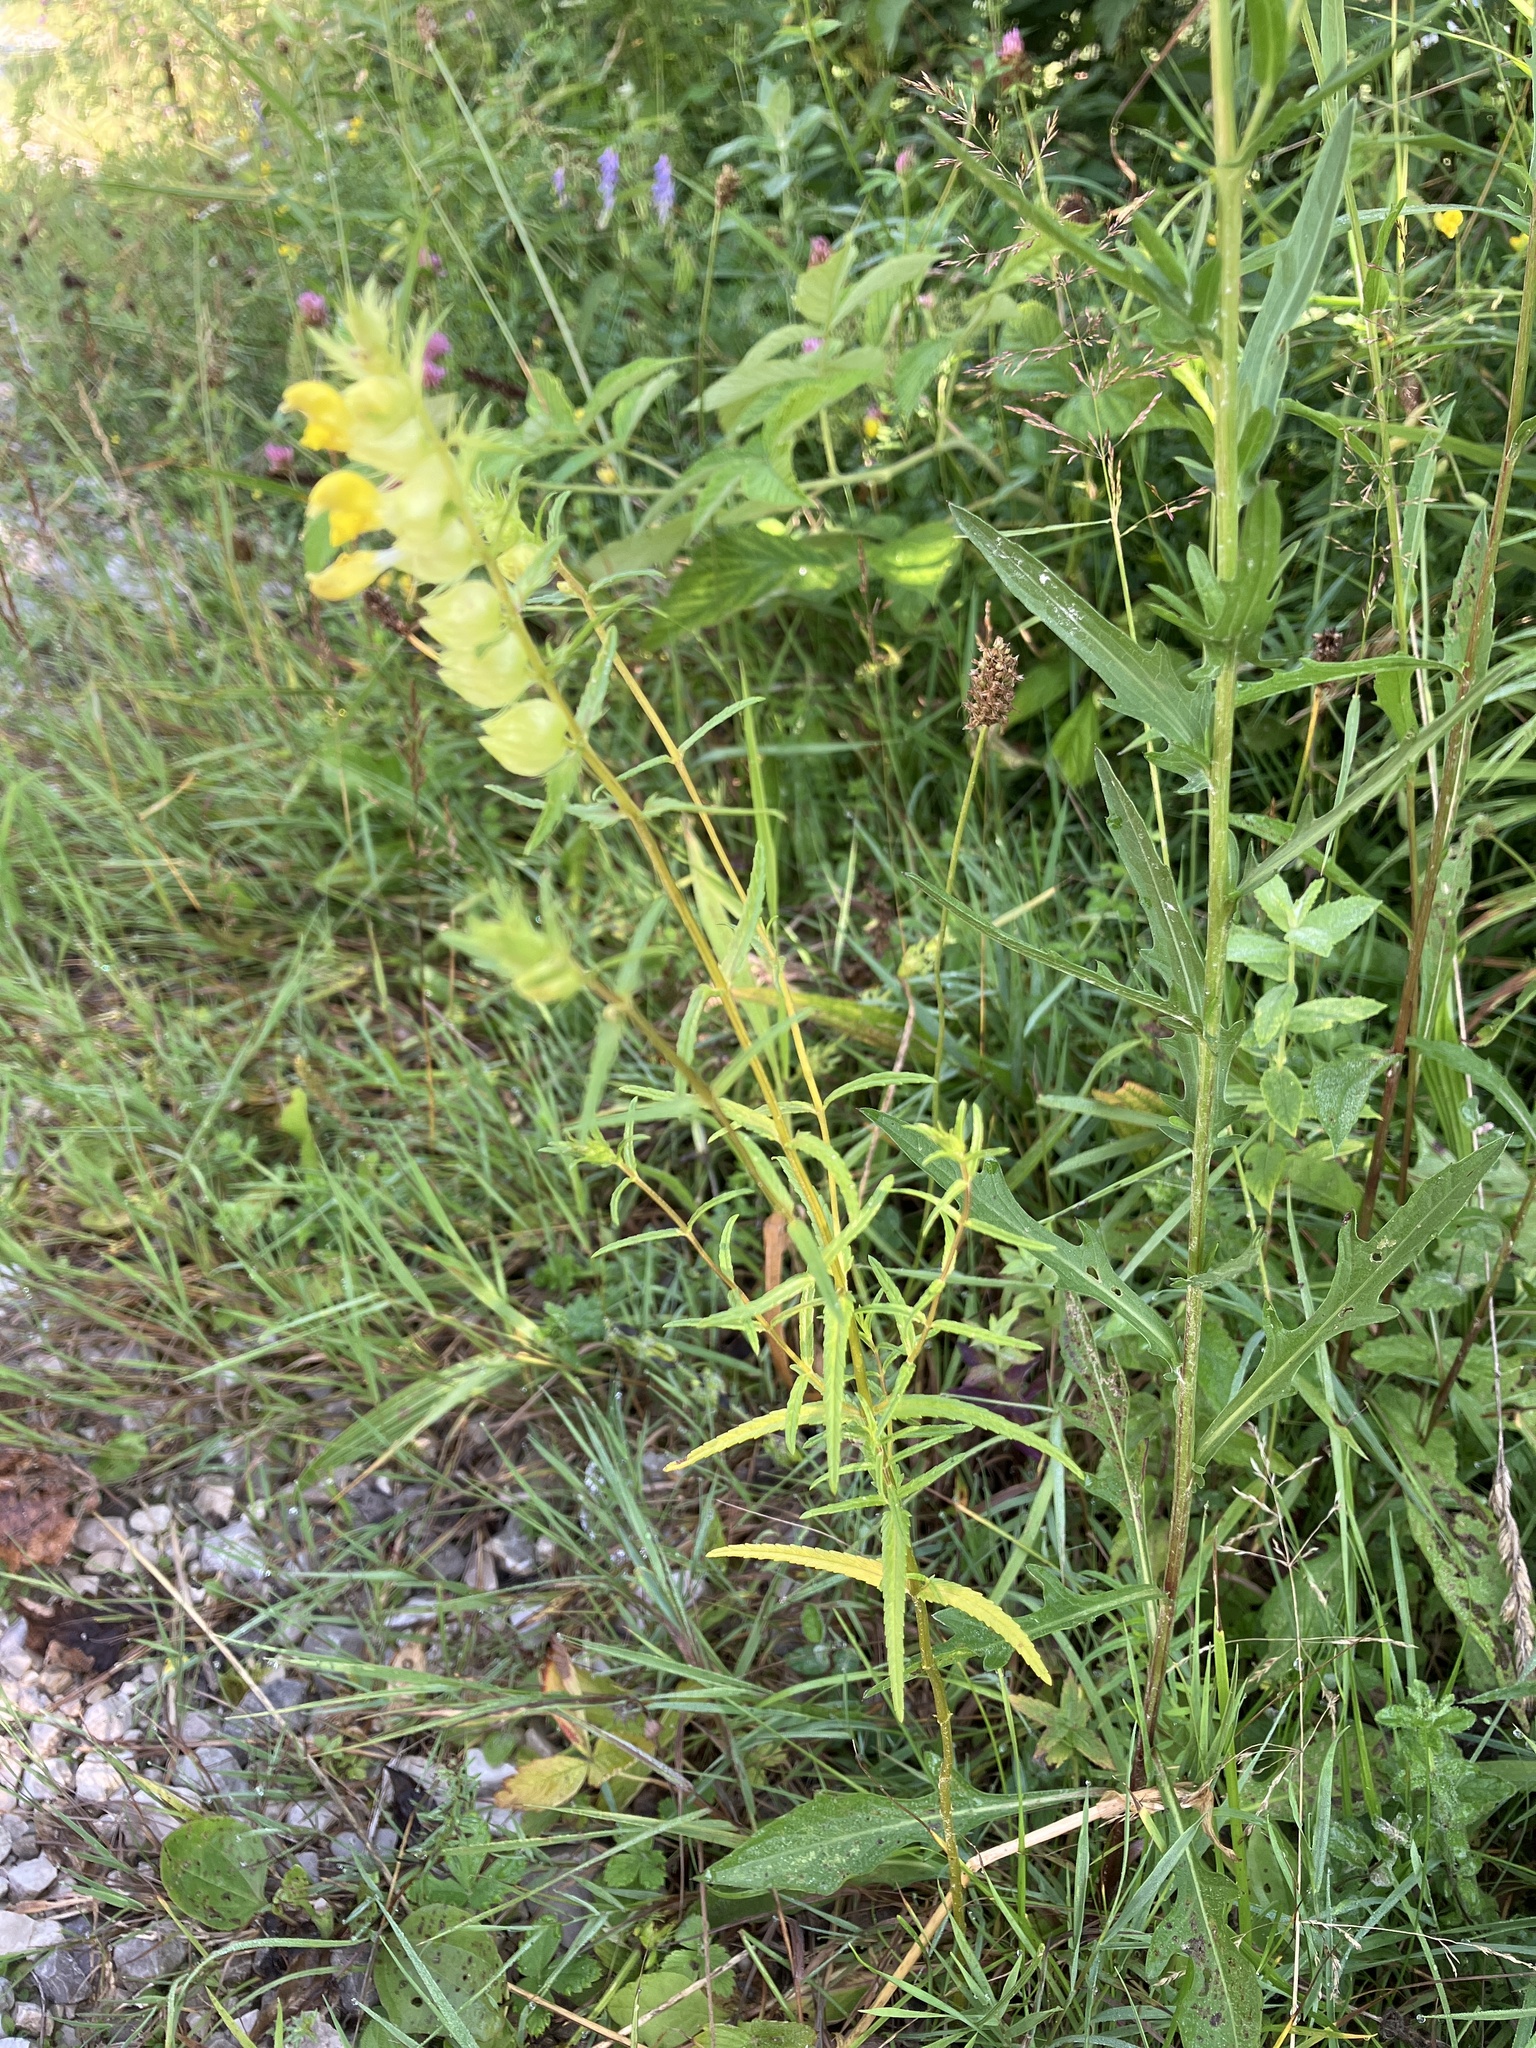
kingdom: Plantae
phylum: Tracheophyta
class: Magnoliopsida
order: Lamiales
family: Orobanchaceae
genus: Rhinanthus
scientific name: Rhinanthus glacialis
